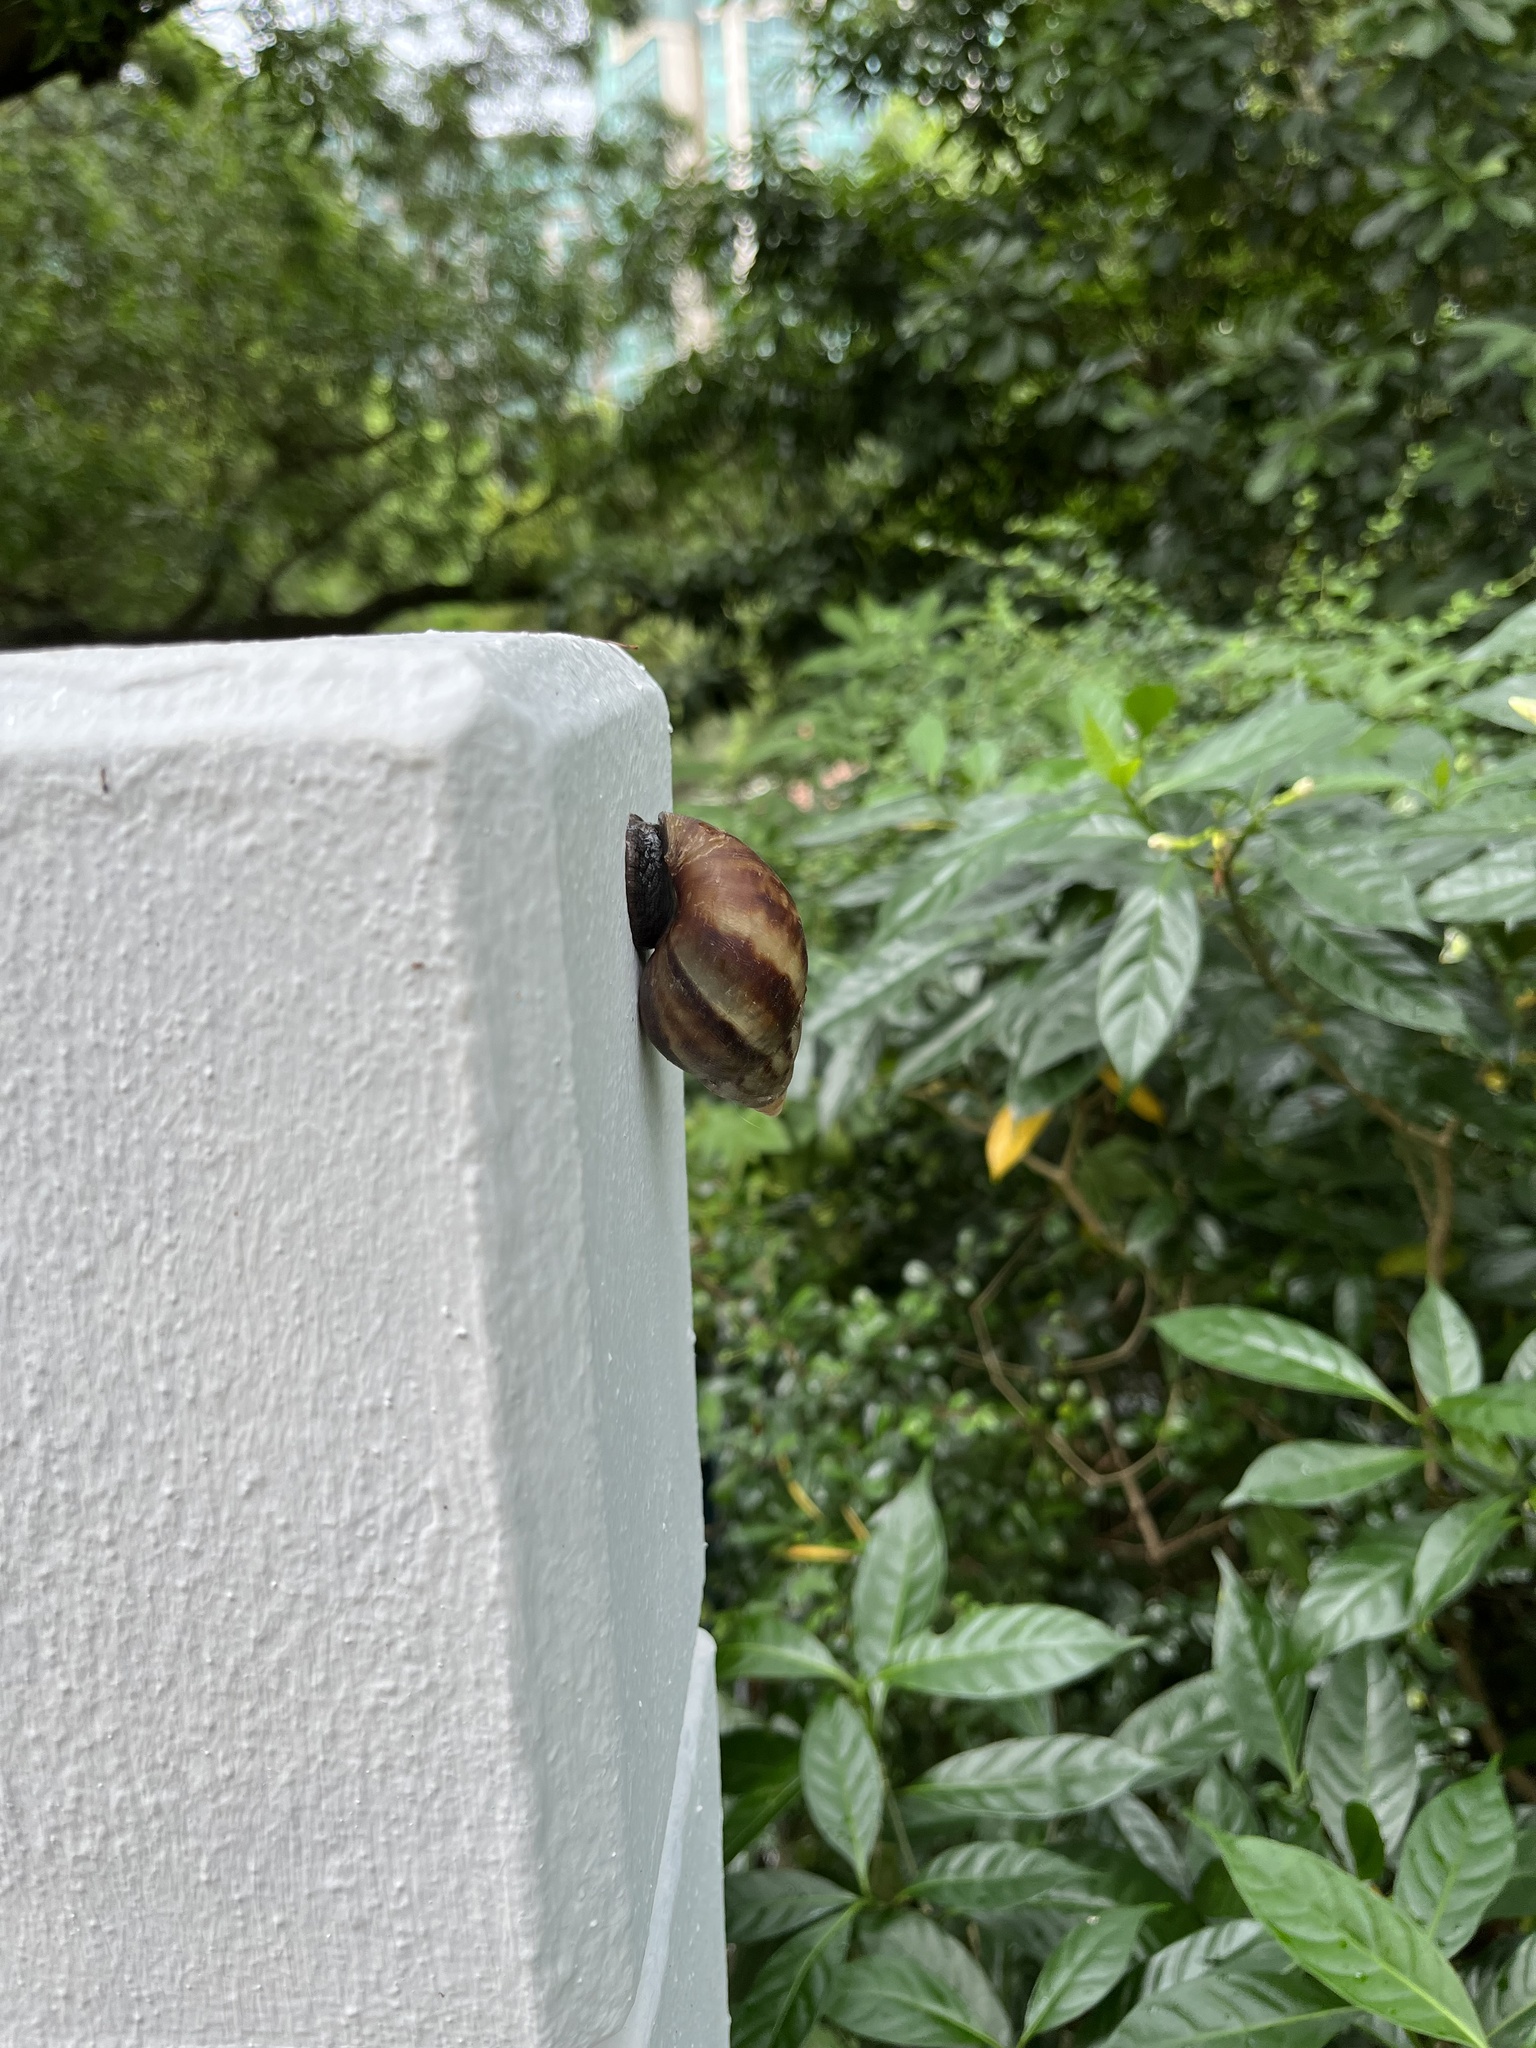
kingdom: Animalia
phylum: Mollusca
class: Gastropoda
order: Stylommatophora
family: Achatinidae
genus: Lissachatina
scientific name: Lissachatina fulica
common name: Giant african snail
